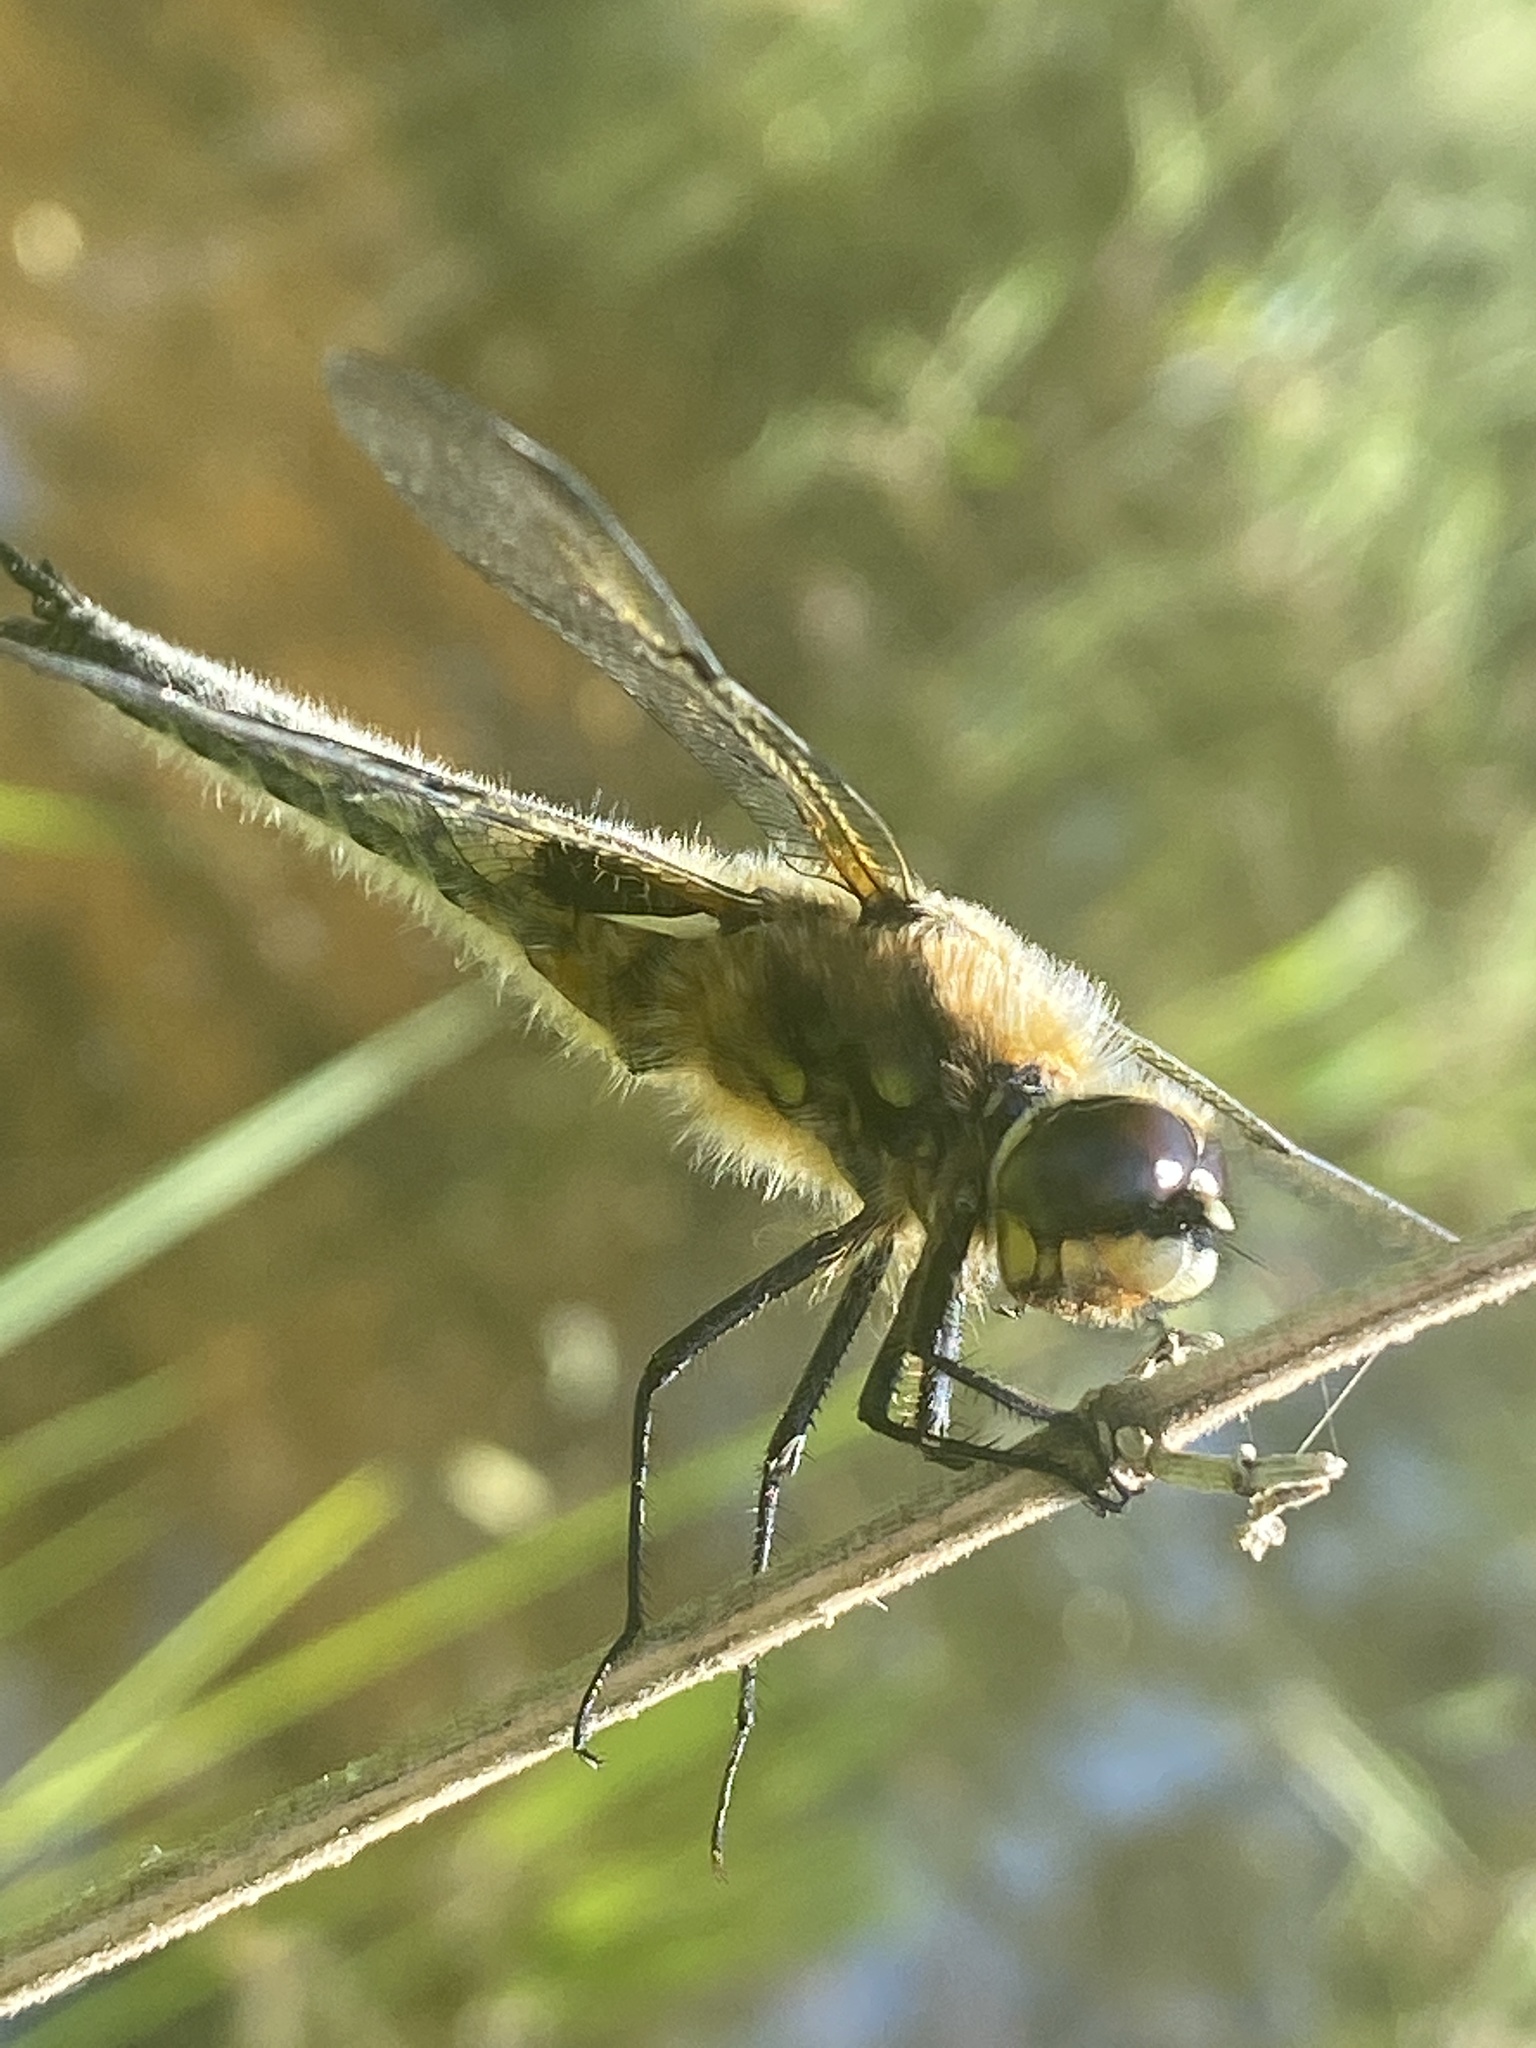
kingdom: Animalia
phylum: Arthropoda
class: Insecta
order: Odonata
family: Libellulidae
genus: Libellula
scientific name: Libellula quadrimaculata
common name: Four-spotted chaser
